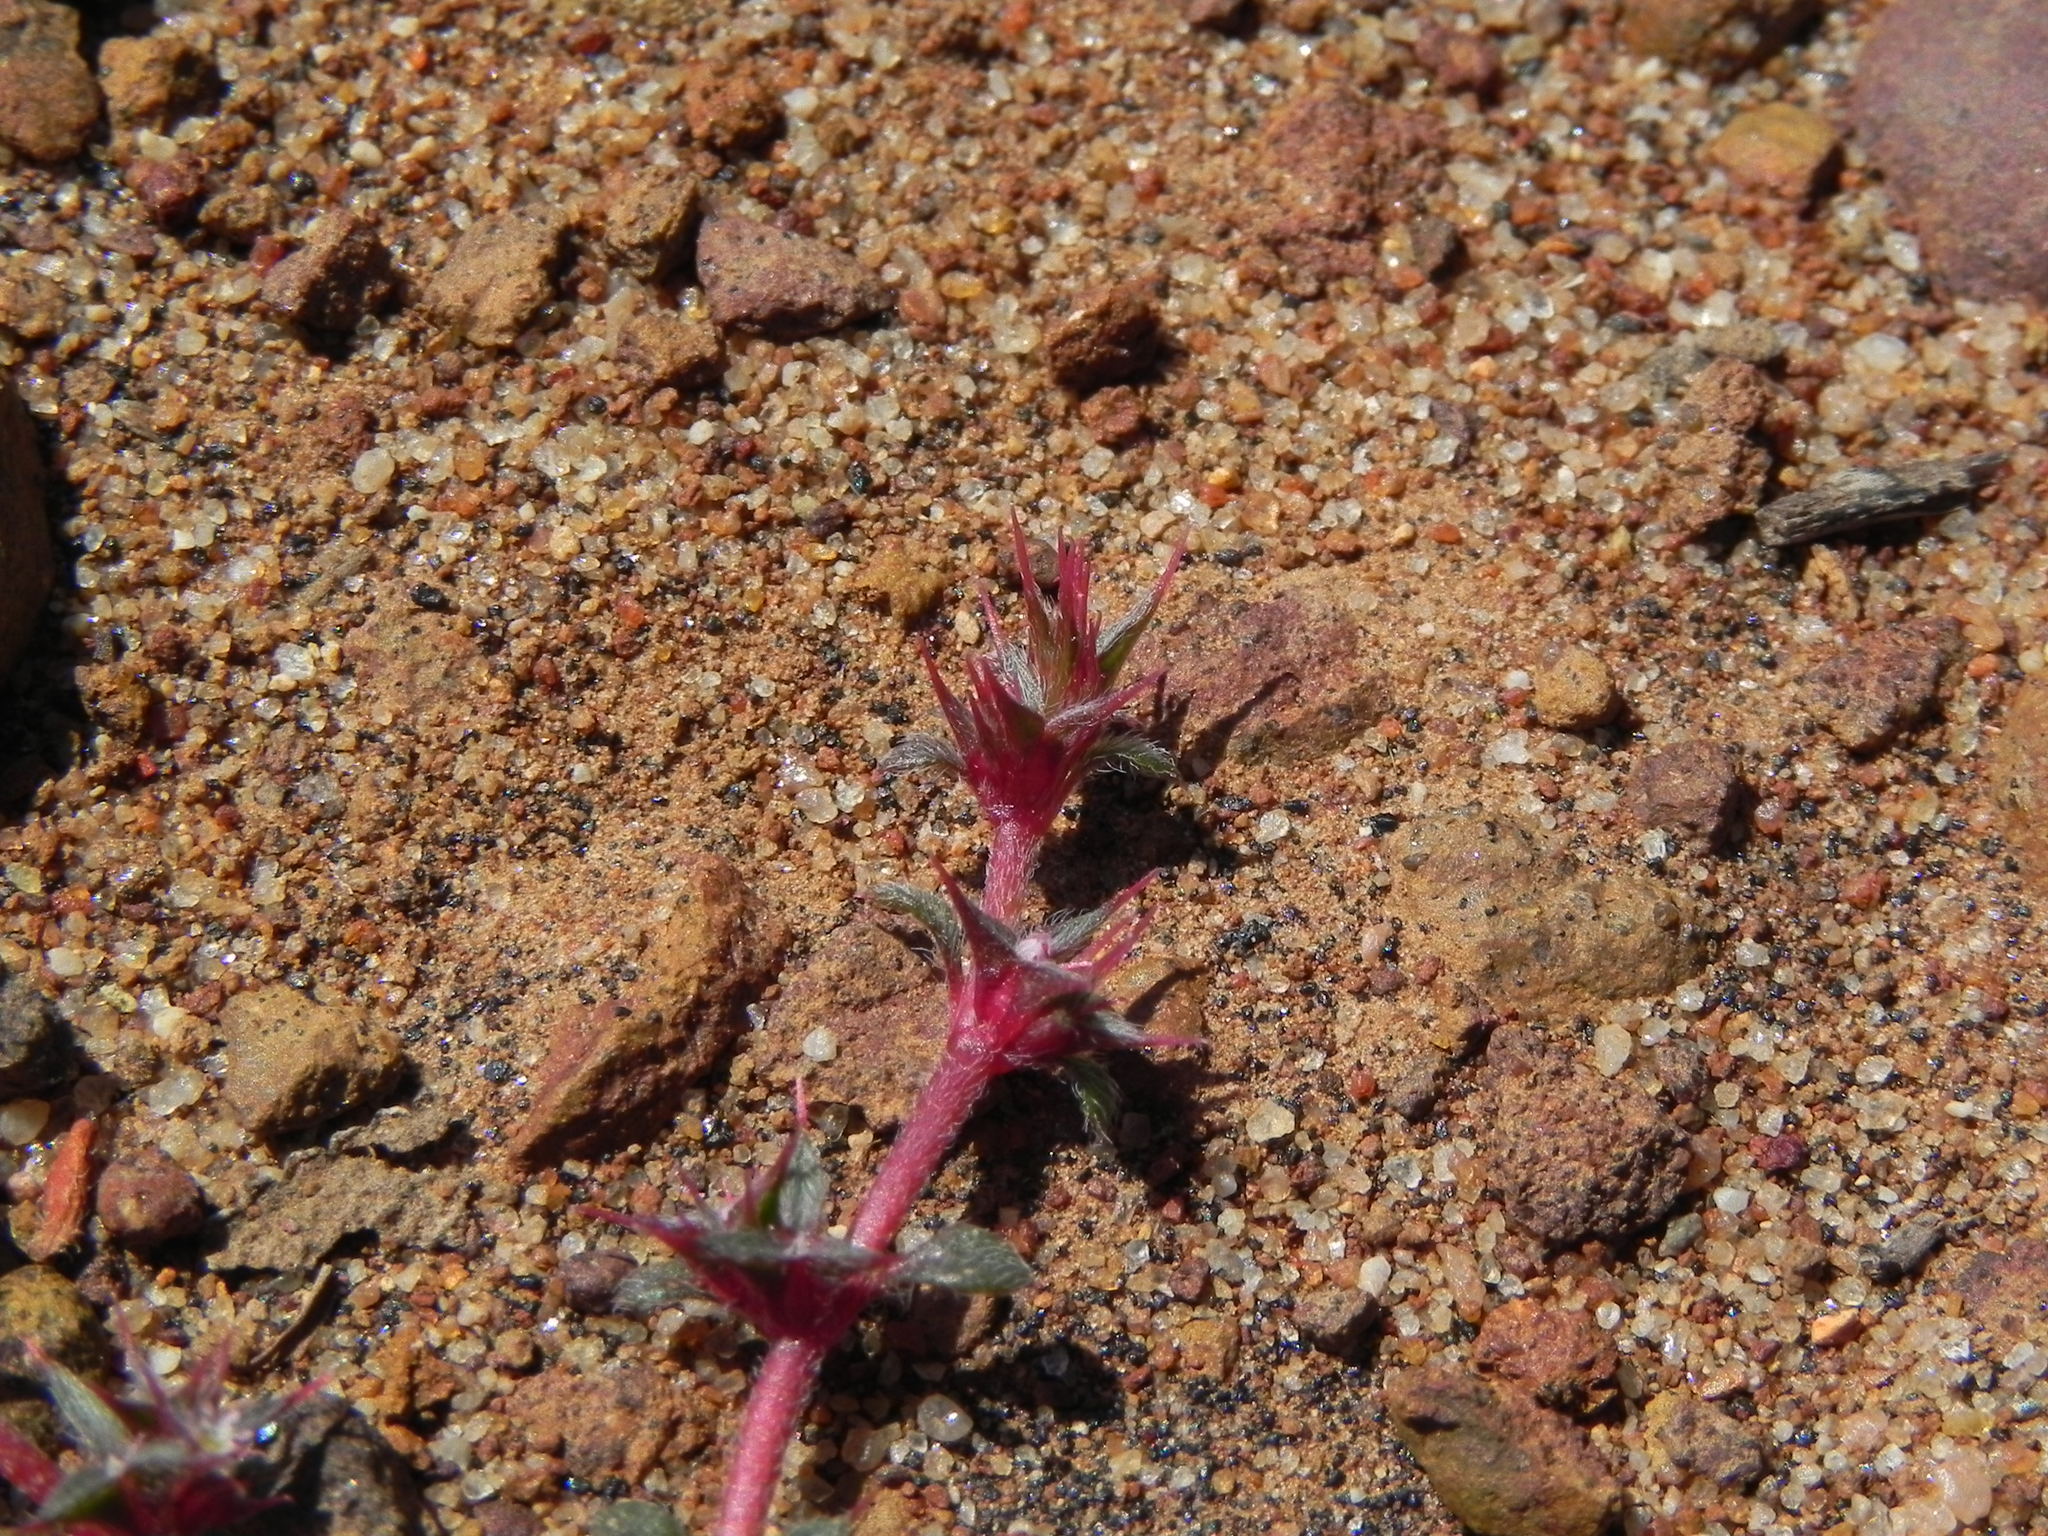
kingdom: Plantae
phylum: Tracheophyta
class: Magnoliopsida
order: Caryophyllales
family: Polygonaceae
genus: Chorizanthe
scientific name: Chorizanthe polygonoides
